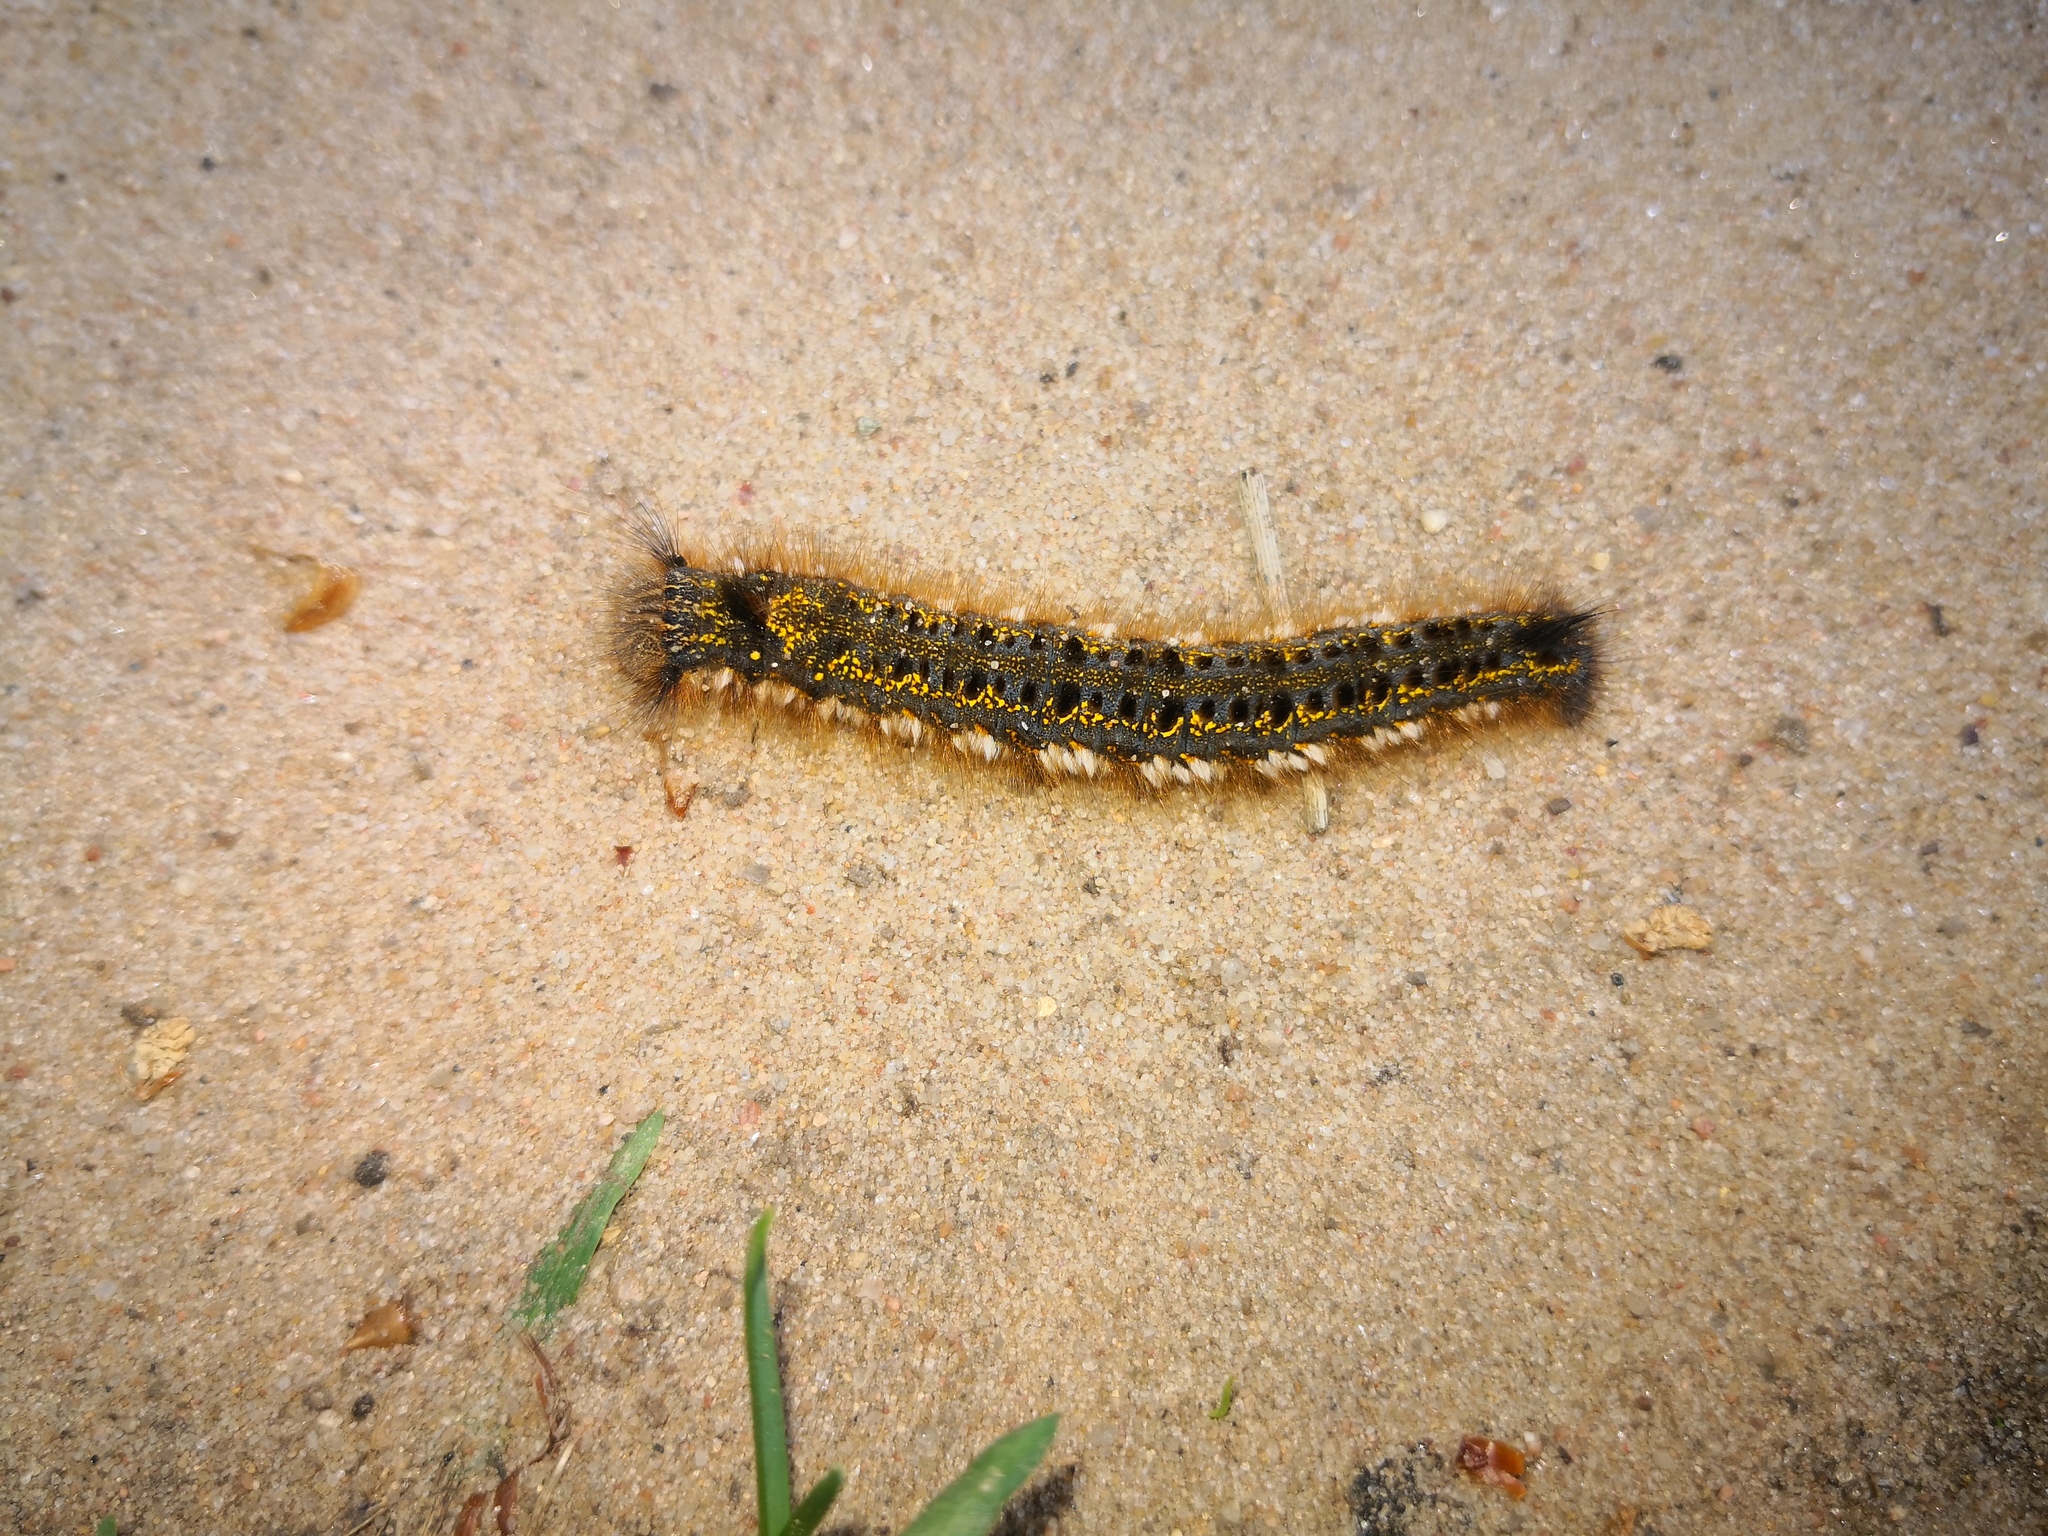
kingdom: Animalia
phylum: Arthropoda
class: Insecta
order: Lepidoptera
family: Lasiocampidae
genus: Euthrix
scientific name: Euthrix potatoria
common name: Drinker
